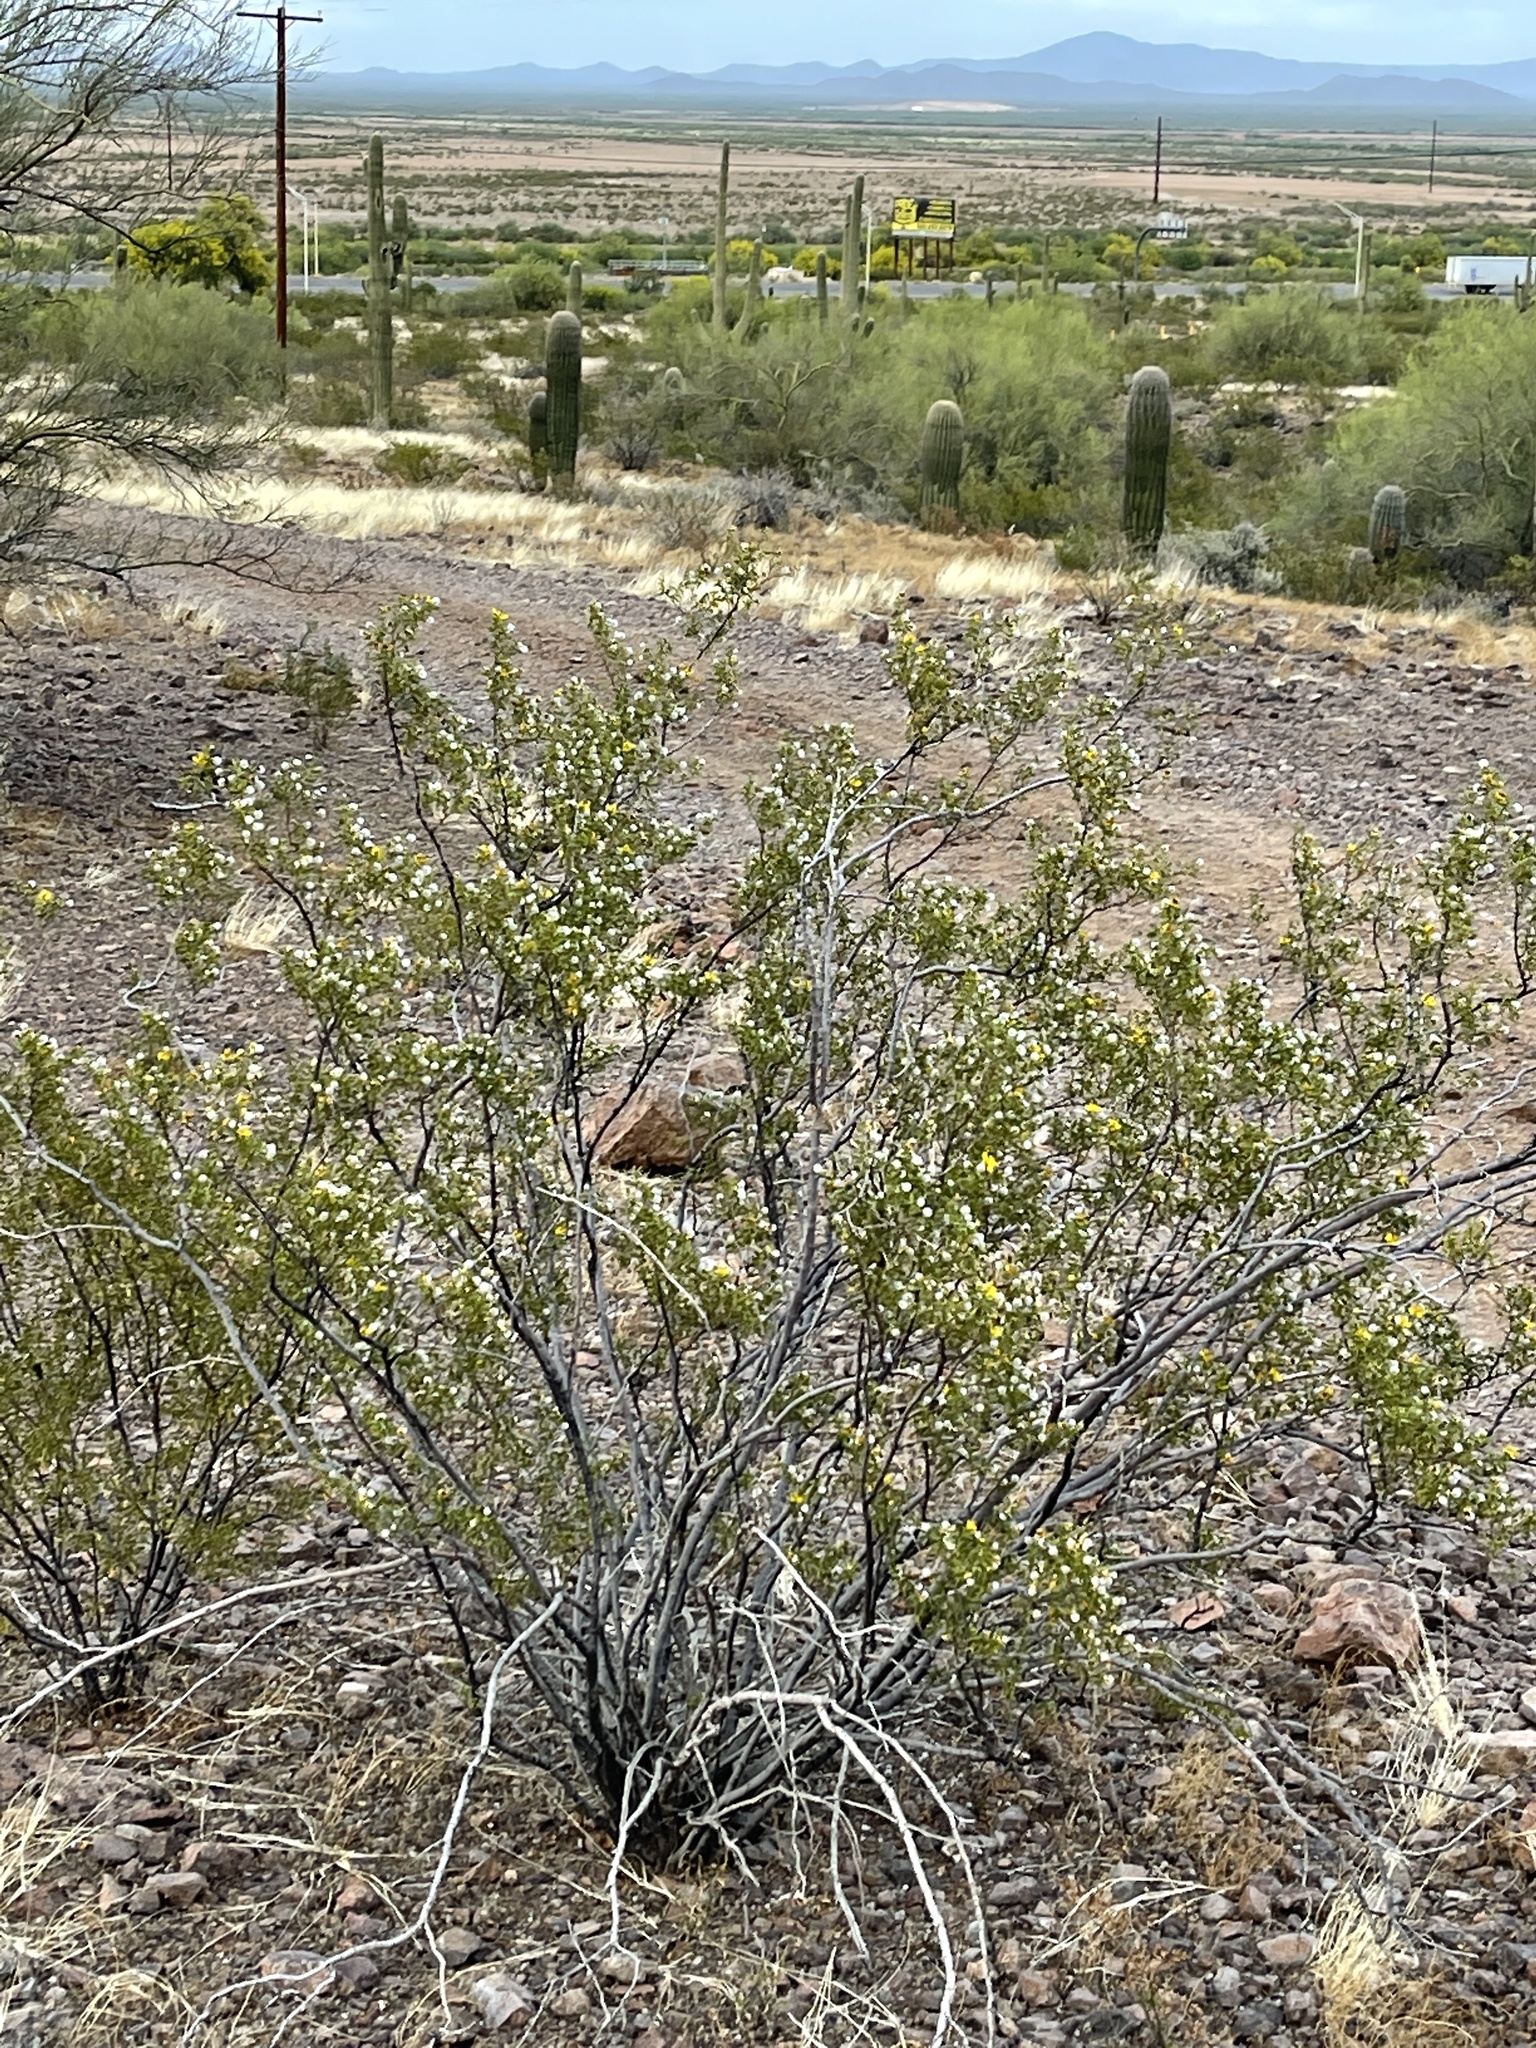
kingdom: Plantae
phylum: Tracheophyta
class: Magnoliopsida
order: Zygophyllales
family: Zygophyllaceae
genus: Larrea
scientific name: Larrea tridentata
